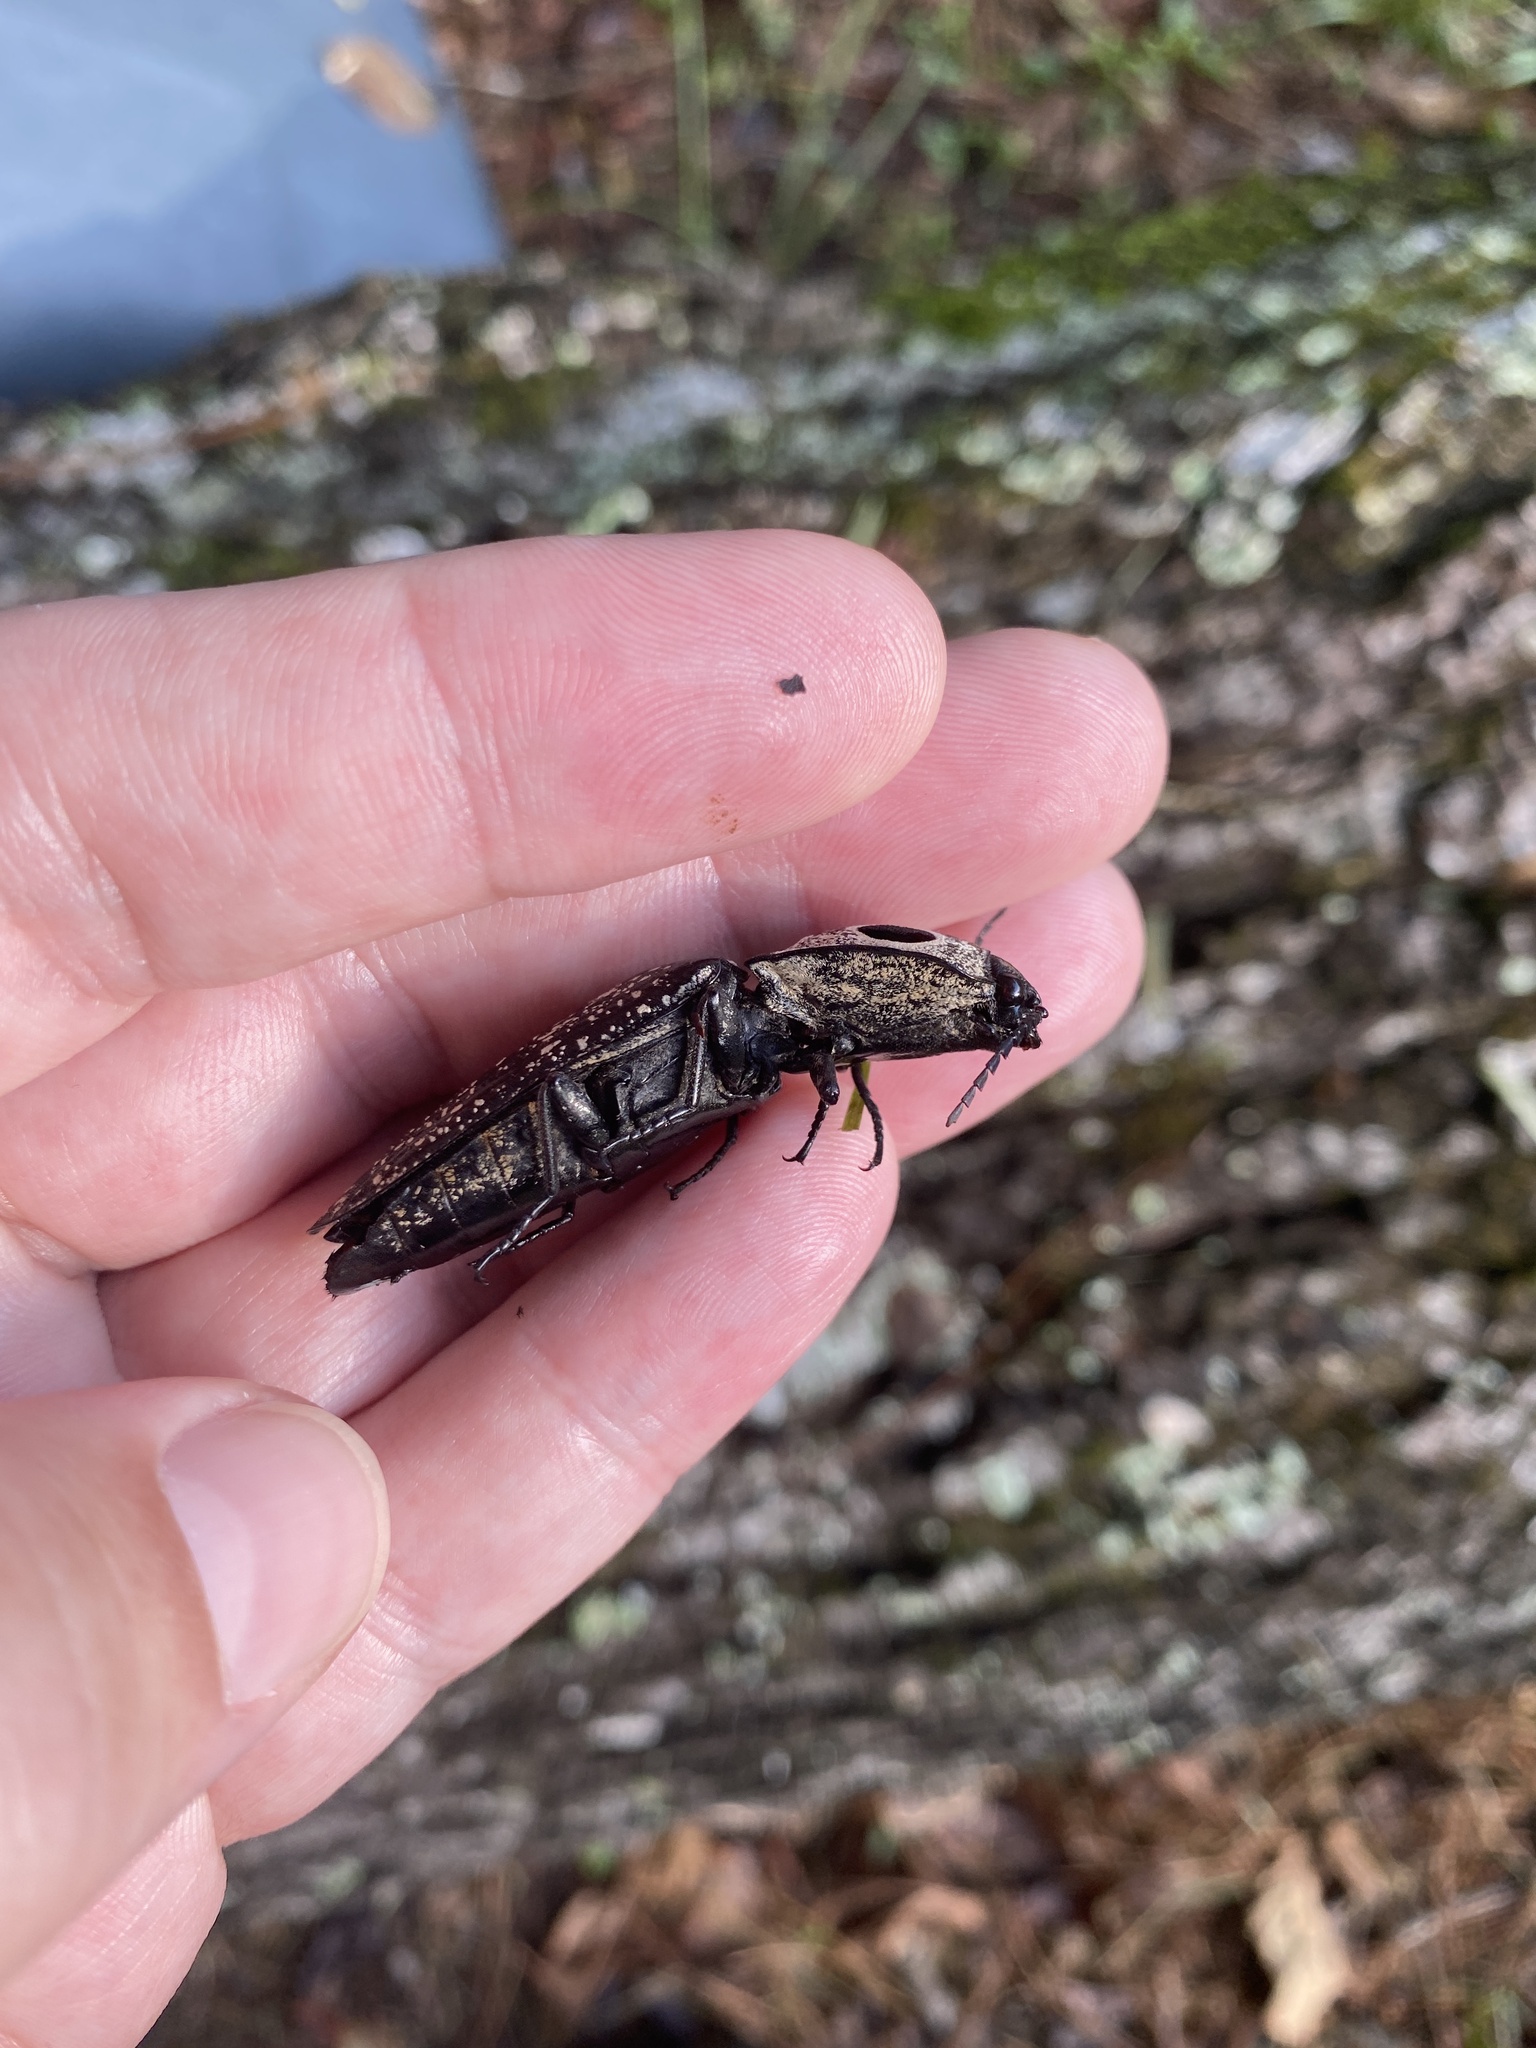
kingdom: Animalia
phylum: Arthropoda
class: Insecta
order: Coleoptera
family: Elateridae
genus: Alaus
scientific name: Alaus oculatus
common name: Eastern eyed click beetle
